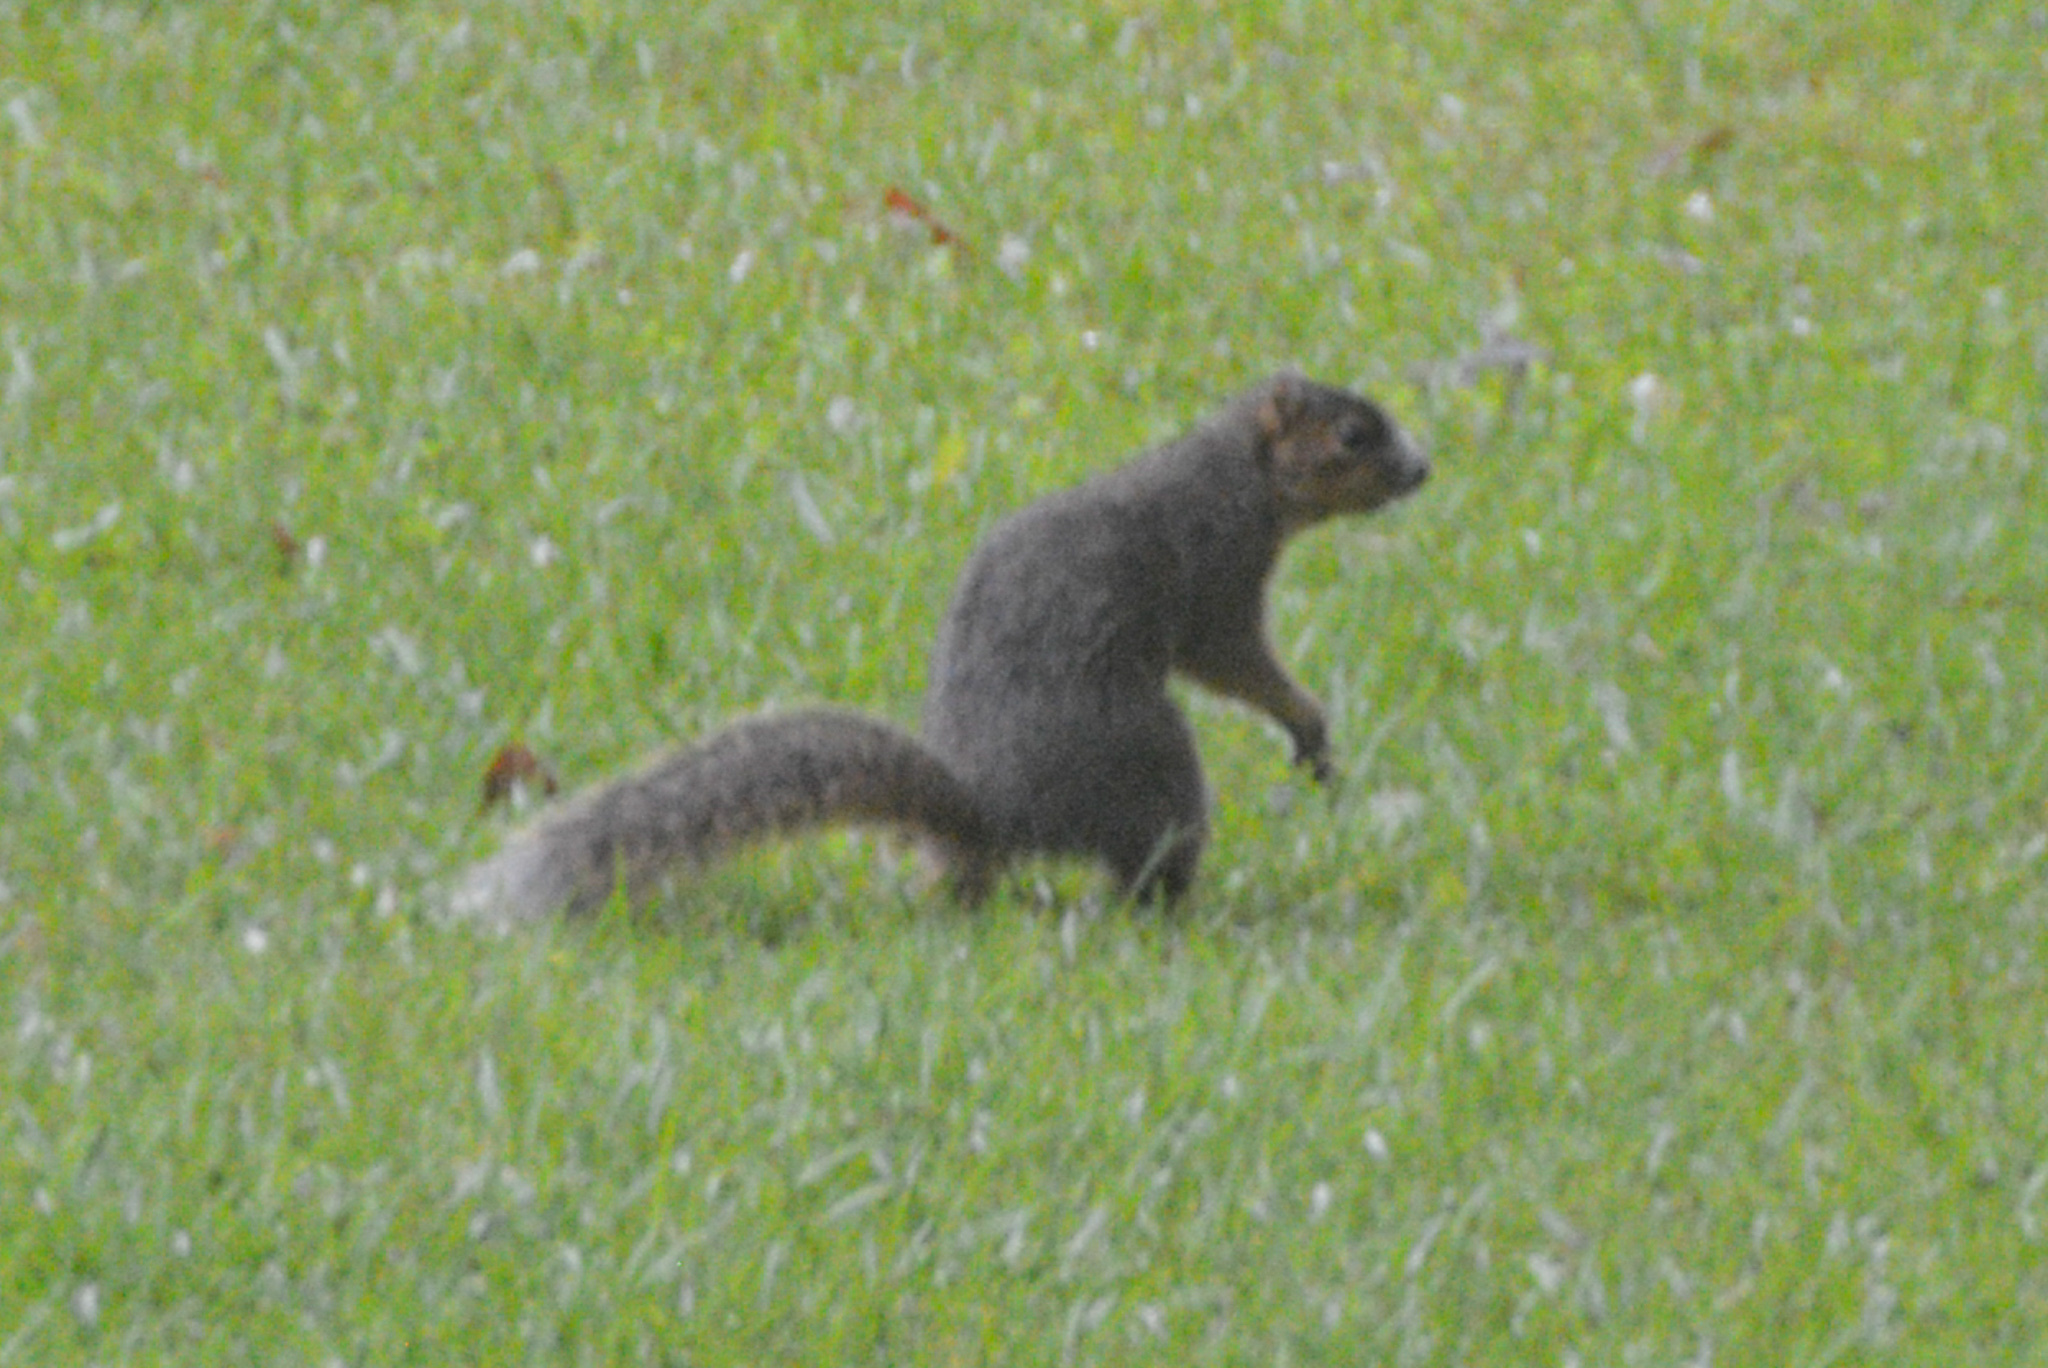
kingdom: Animalia
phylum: Chordata
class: Mammalia
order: Rodentia
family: Sciuridae
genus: Sciurus
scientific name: Sciurus niger
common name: Fox squirrel
